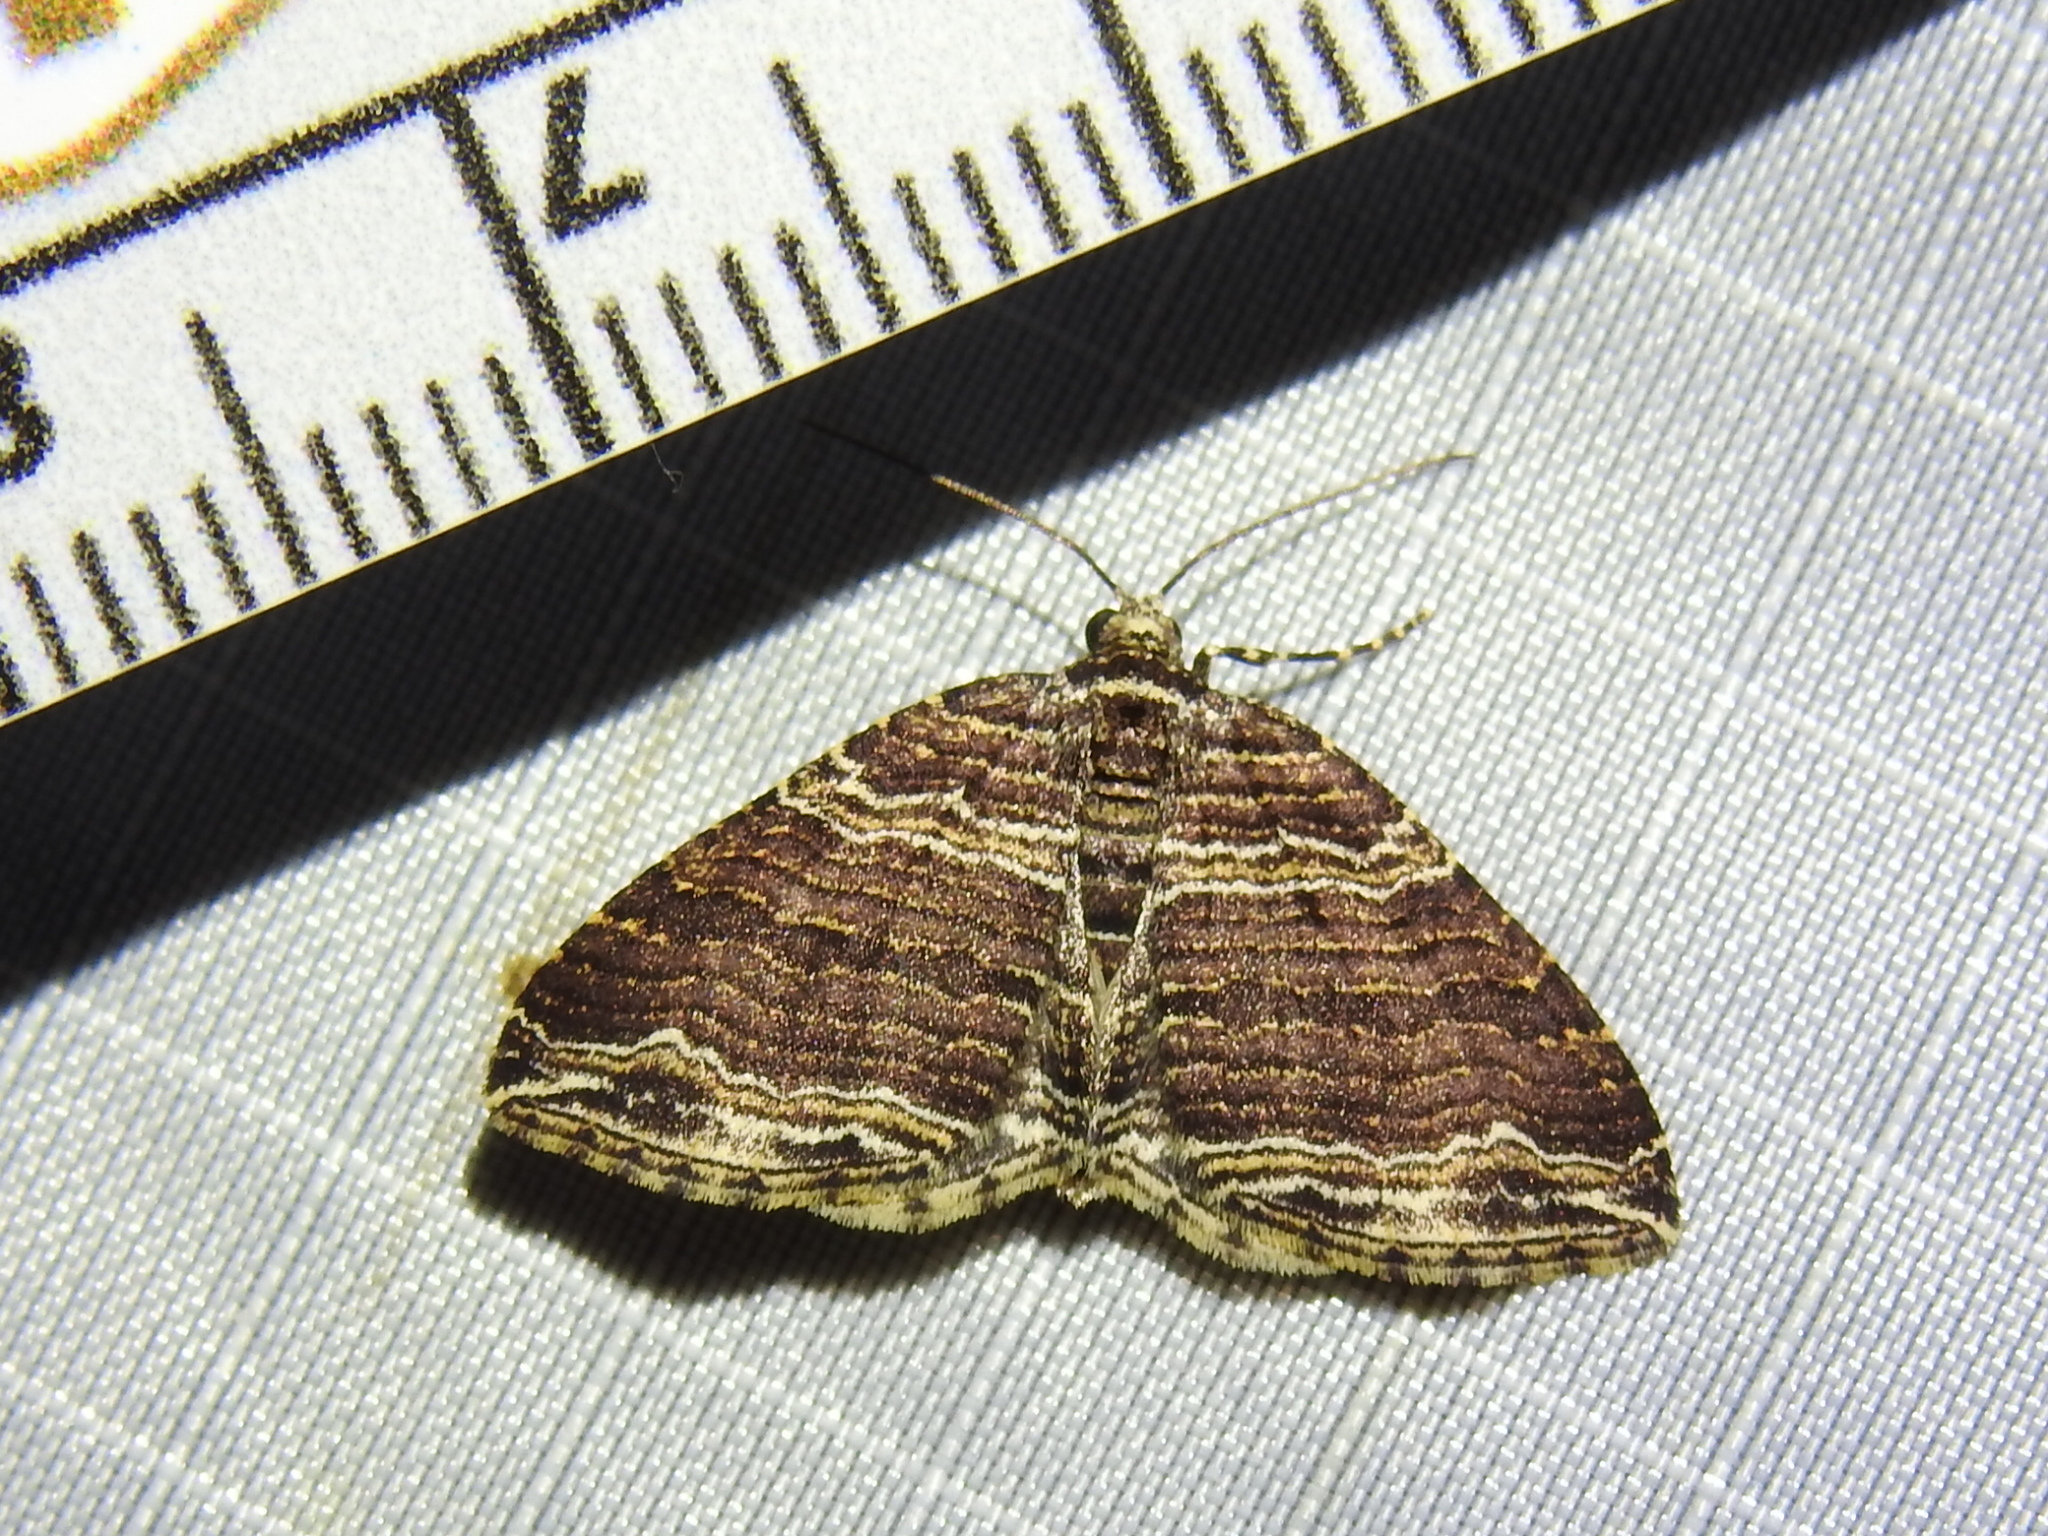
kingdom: Animalia
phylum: Arthropoda
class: Insecta
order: Lepidoptera
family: Geometridae
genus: Anticlea
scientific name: Anticlea multiferata
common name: Many-lined carpet
